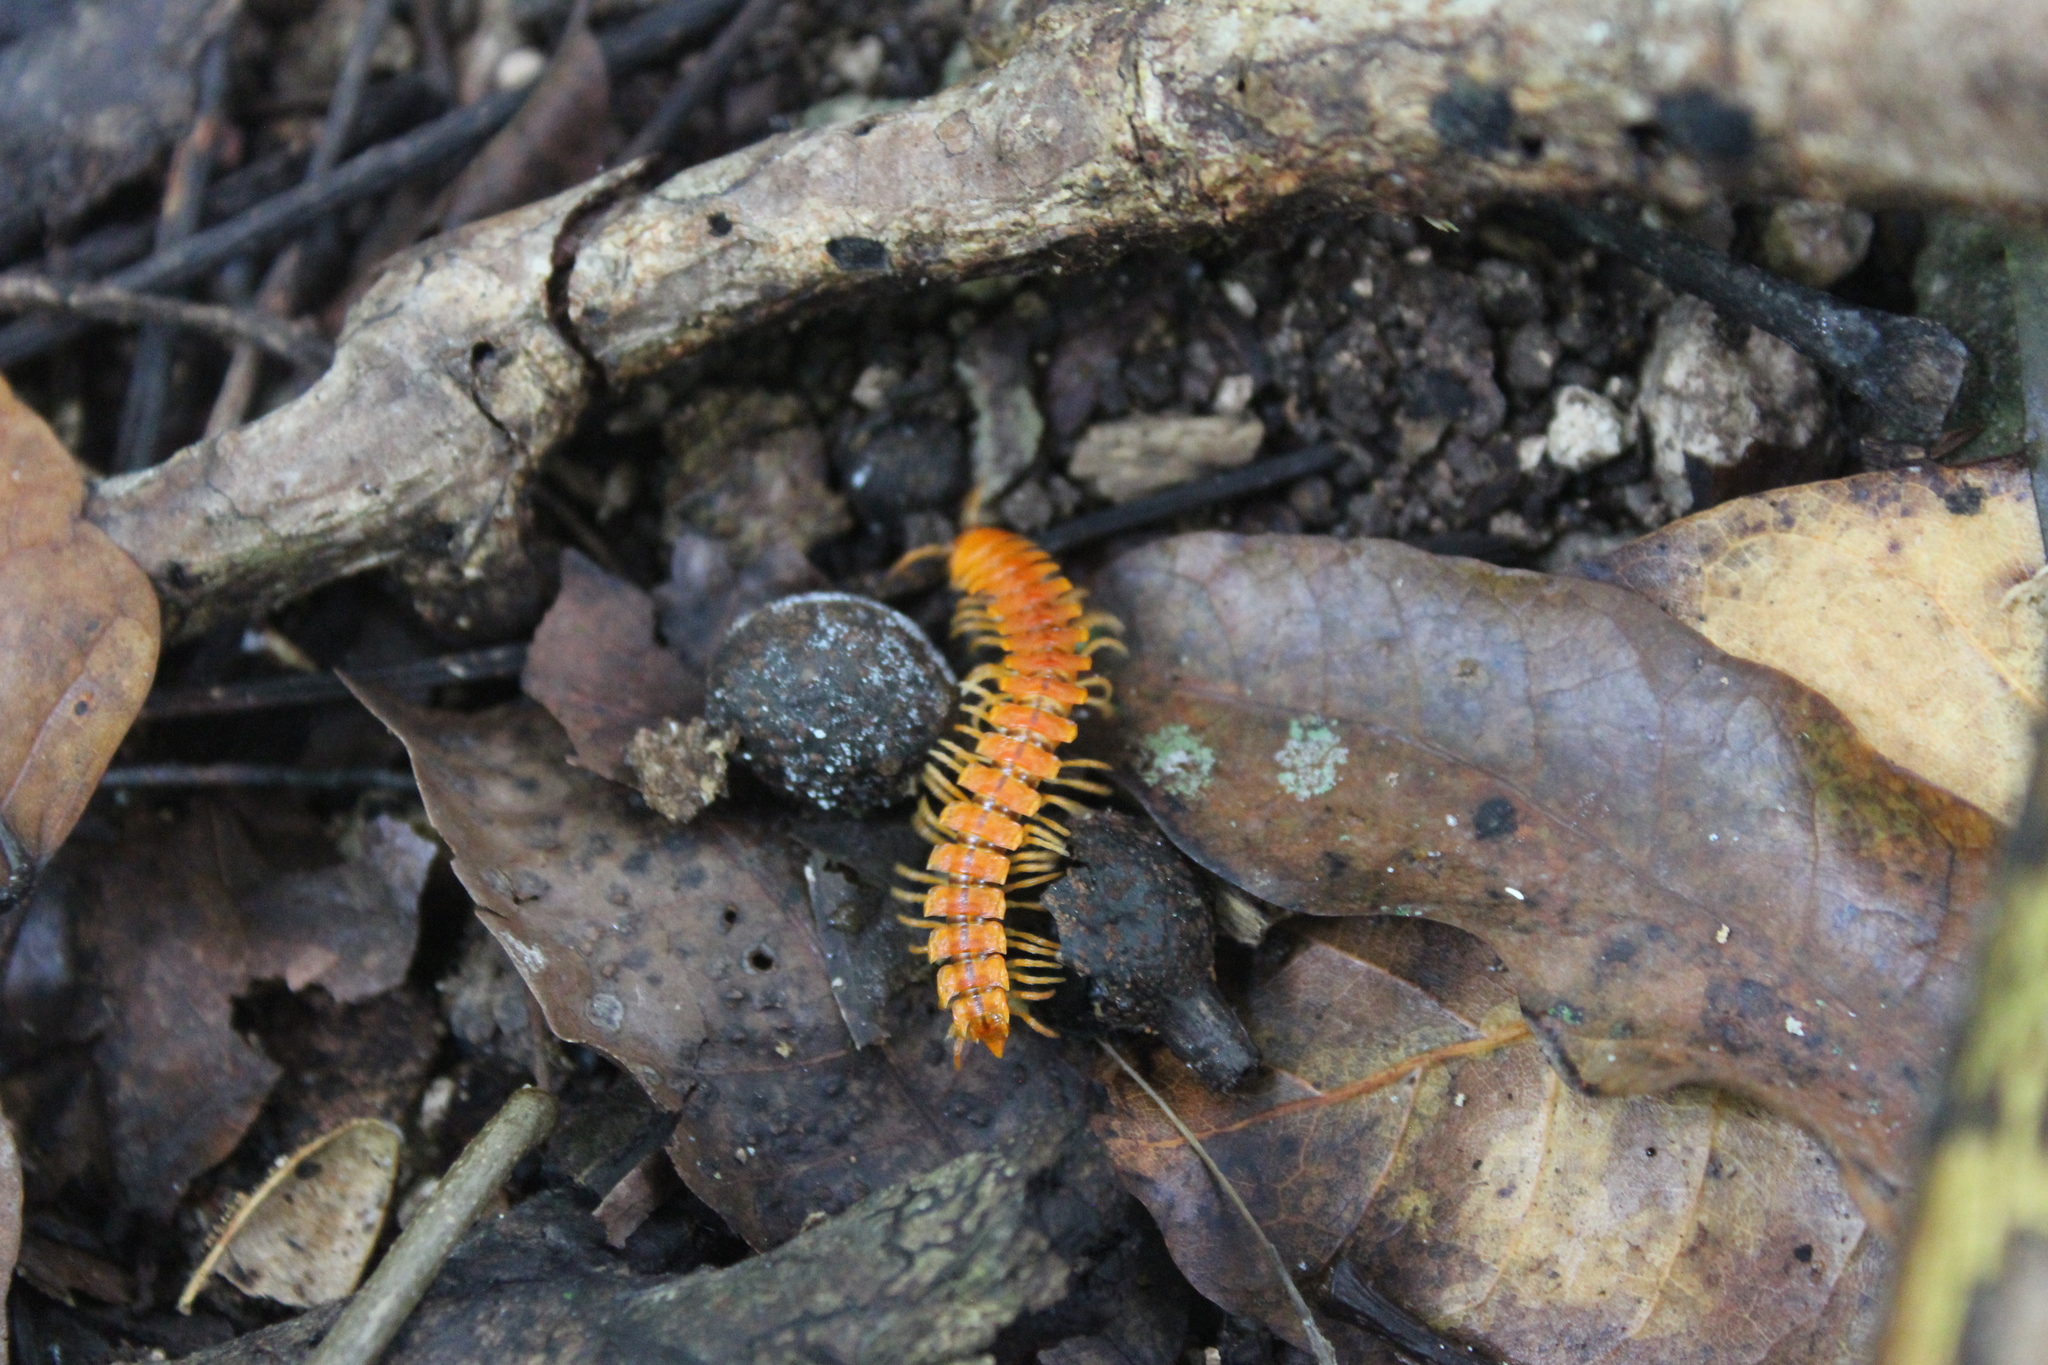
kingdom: Animalia
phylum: Arthropoda
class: Diplopoda
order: Polydesmida
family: Rhachodesmidae
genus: Aceratophallus
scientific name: Aceratophallus maya
